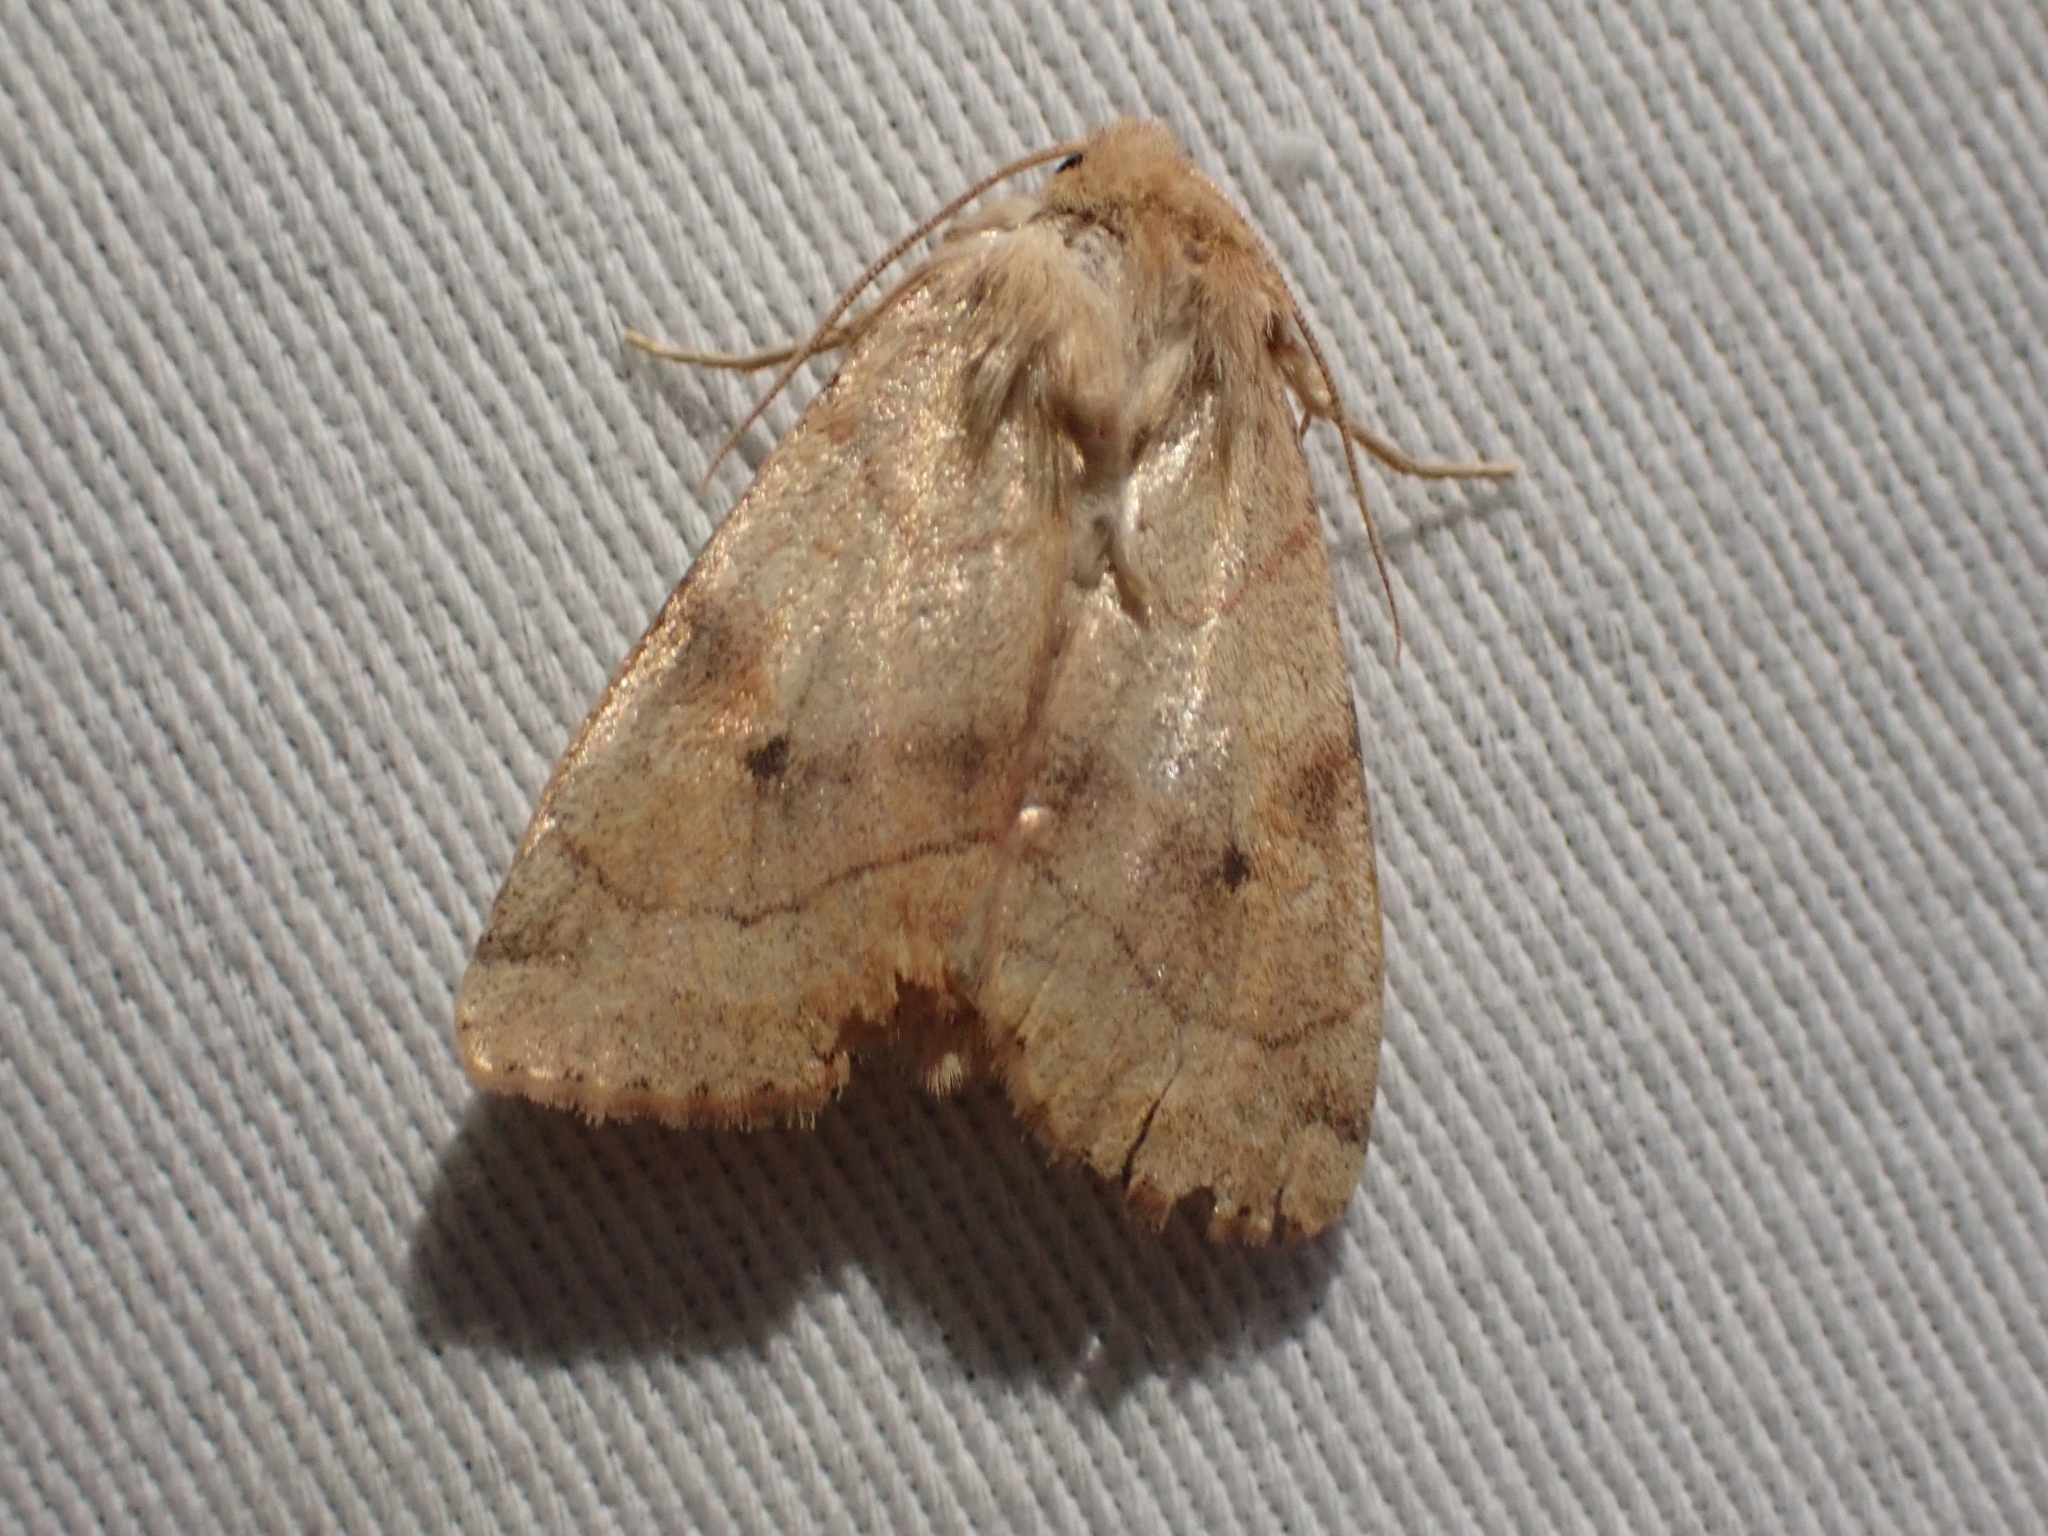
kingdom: Animalia
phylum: Arthropoda
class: Insecta
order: Lepidoptera
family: Noctuidae
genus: Enargia
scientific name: Enargia infumata
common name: Smoked sallow
